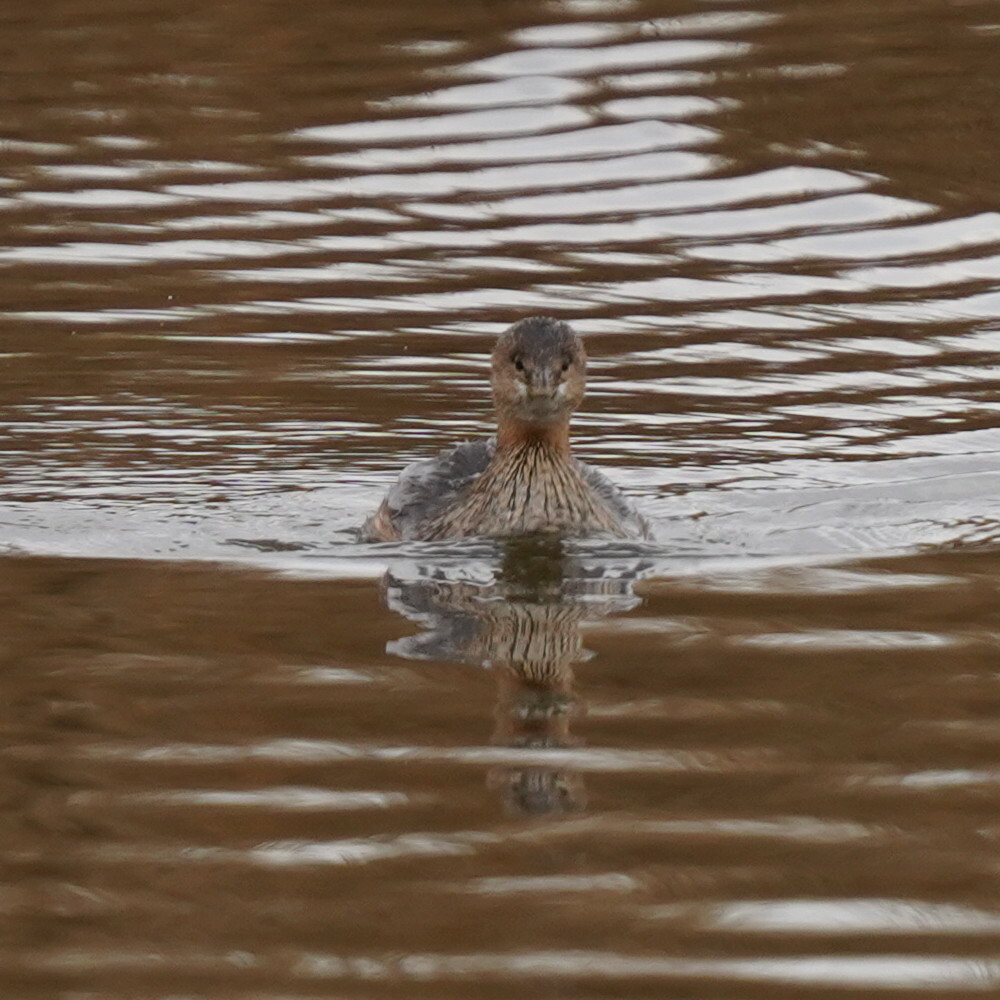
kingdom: Animalia
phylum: Chordata
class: Aves
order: Podicipediformes
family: Podicipedidae
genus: Podilymbus
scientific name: Podilymbus podiceps
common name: Pied-billed grebe
